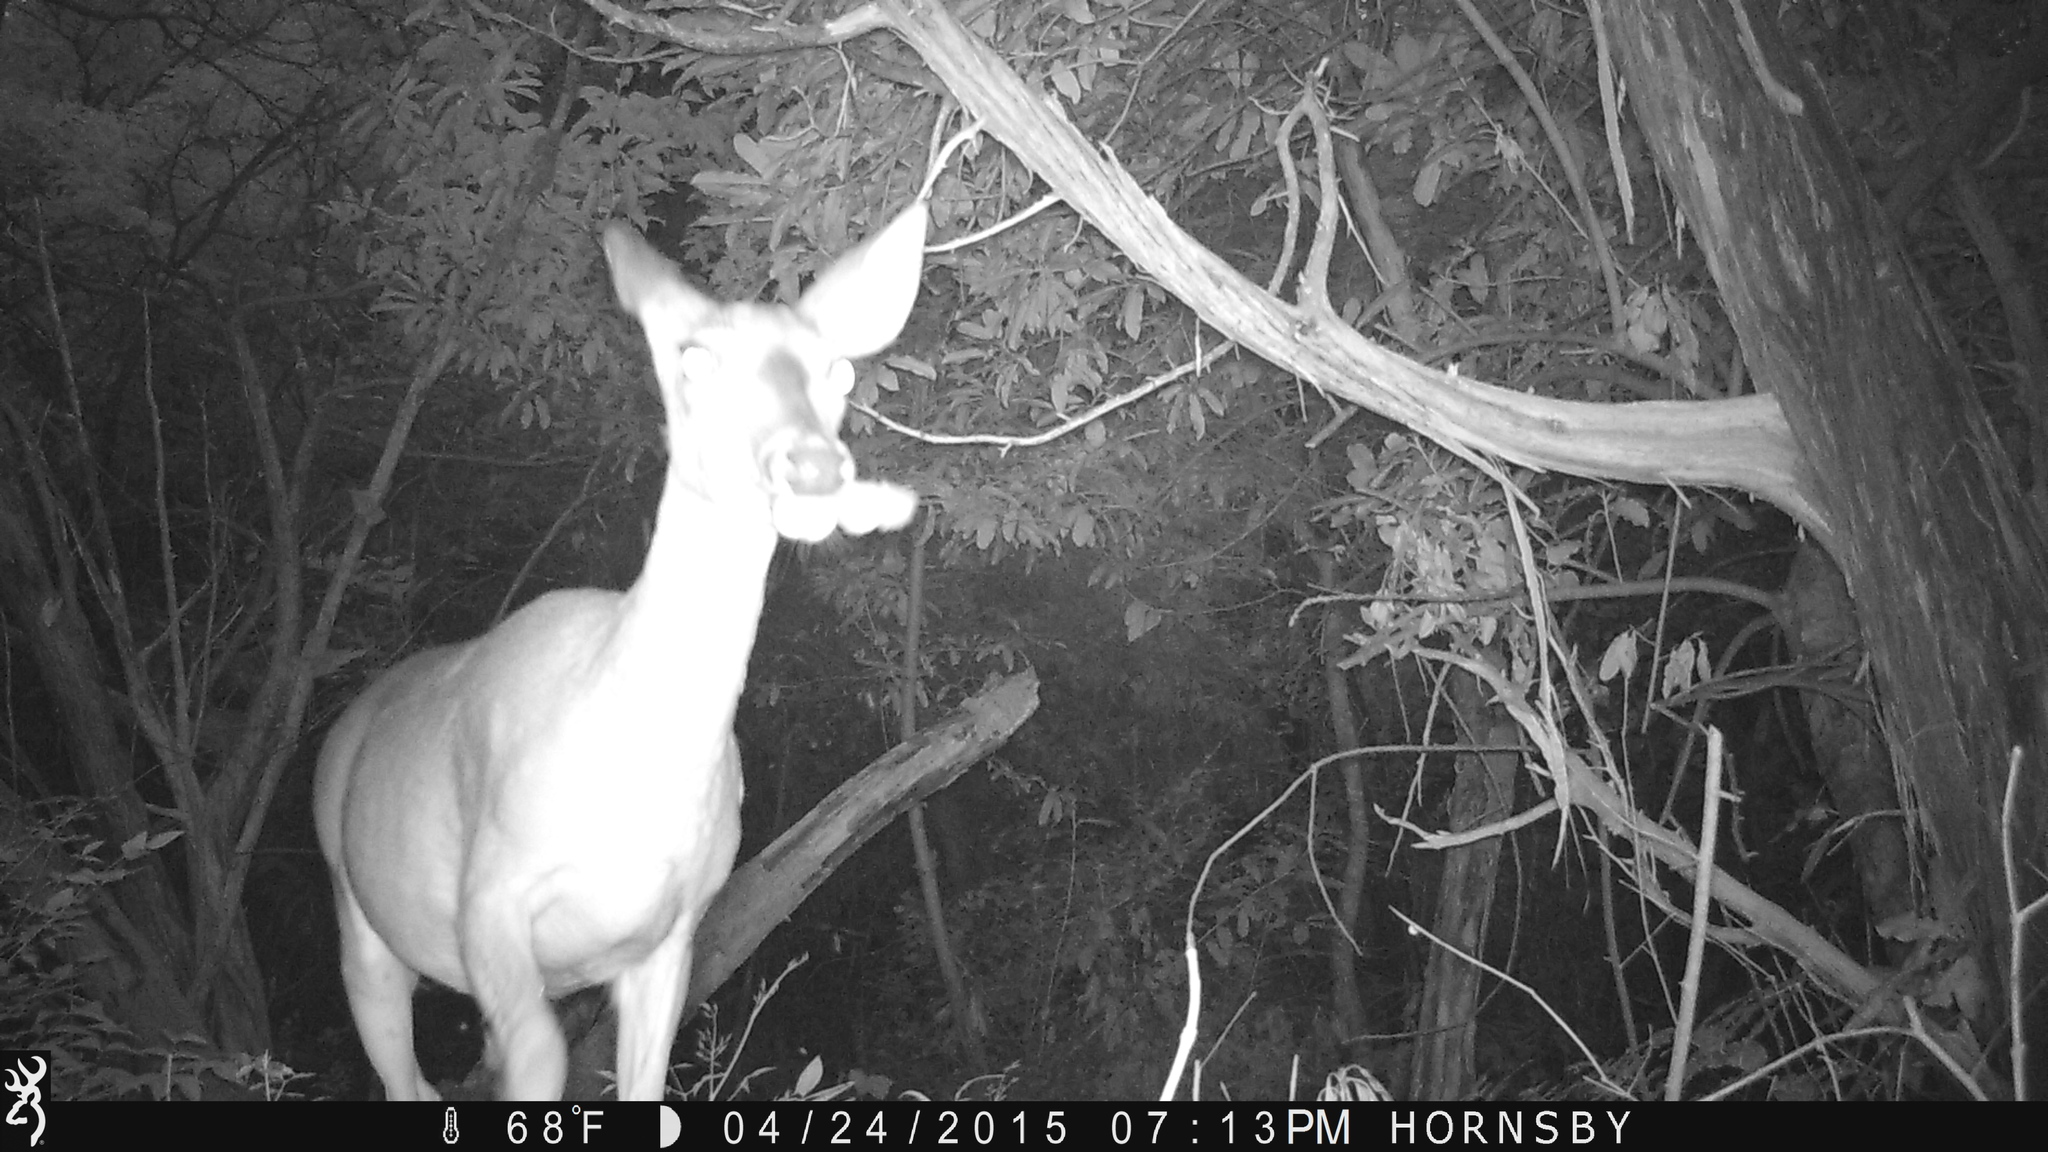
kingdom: Animalia
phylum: Chordata
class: Mammalia
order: Artiodactyla
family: Cervidae
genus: Odocoileus
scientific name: Odocoileus virginianus
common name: White-tailed deer
